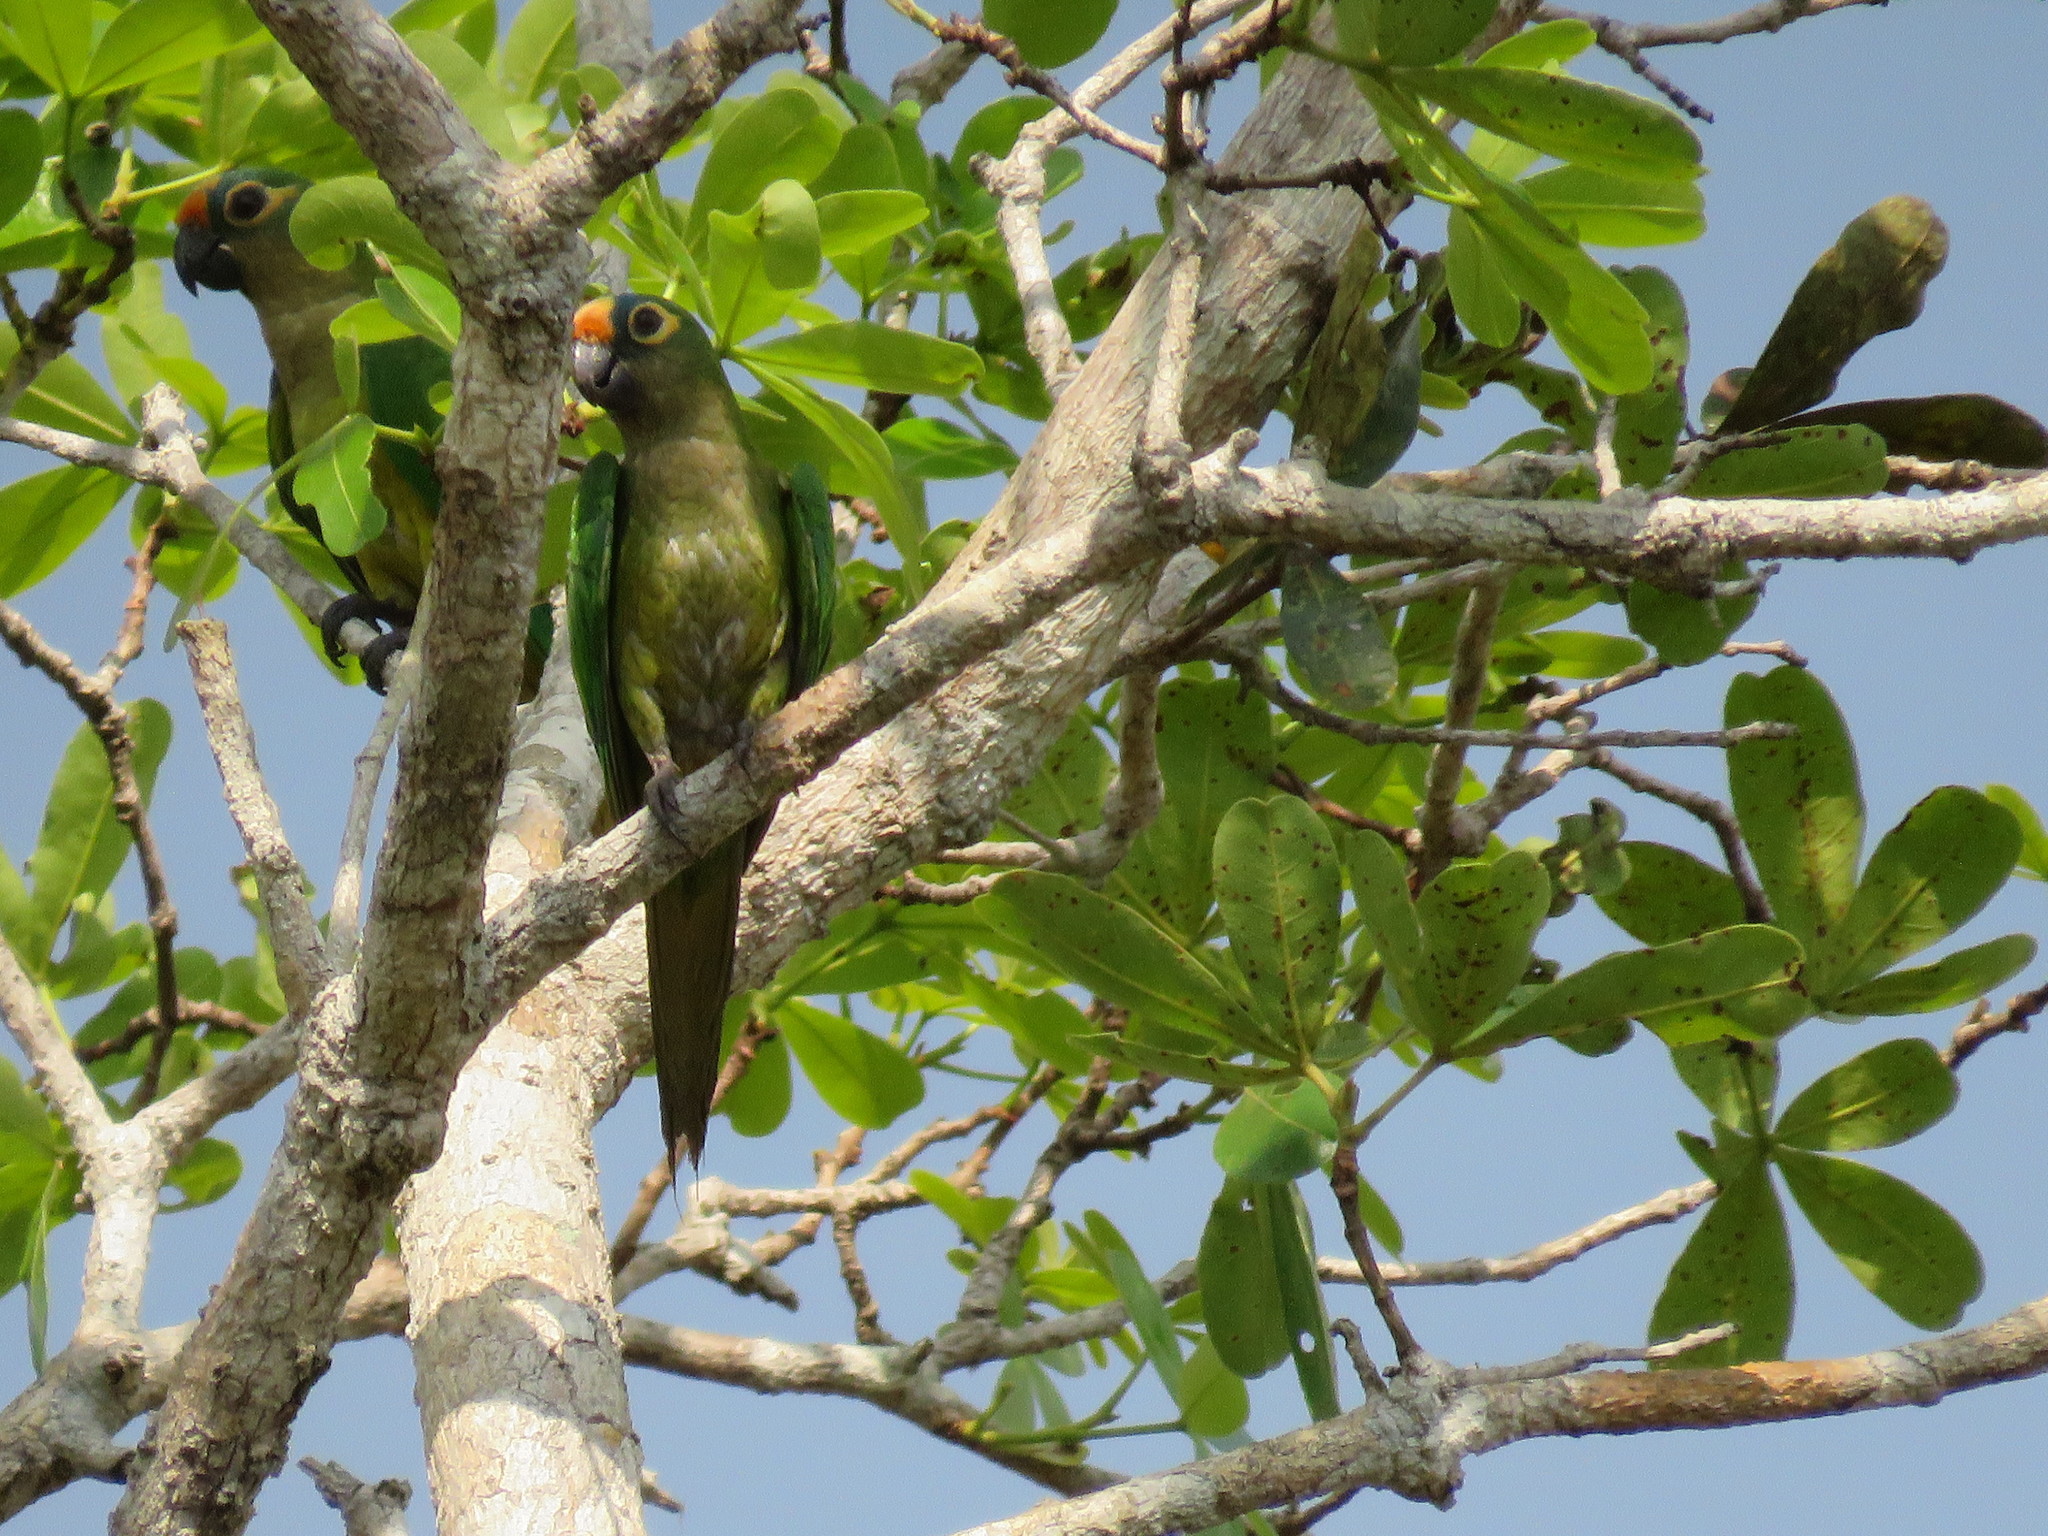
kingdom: Animalia
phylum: Chordata
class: Aves
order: Psittaciformes
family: Psittacidae
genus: Aratinga
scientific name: Aratinga aurea
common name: Peach-fronted parakeet
